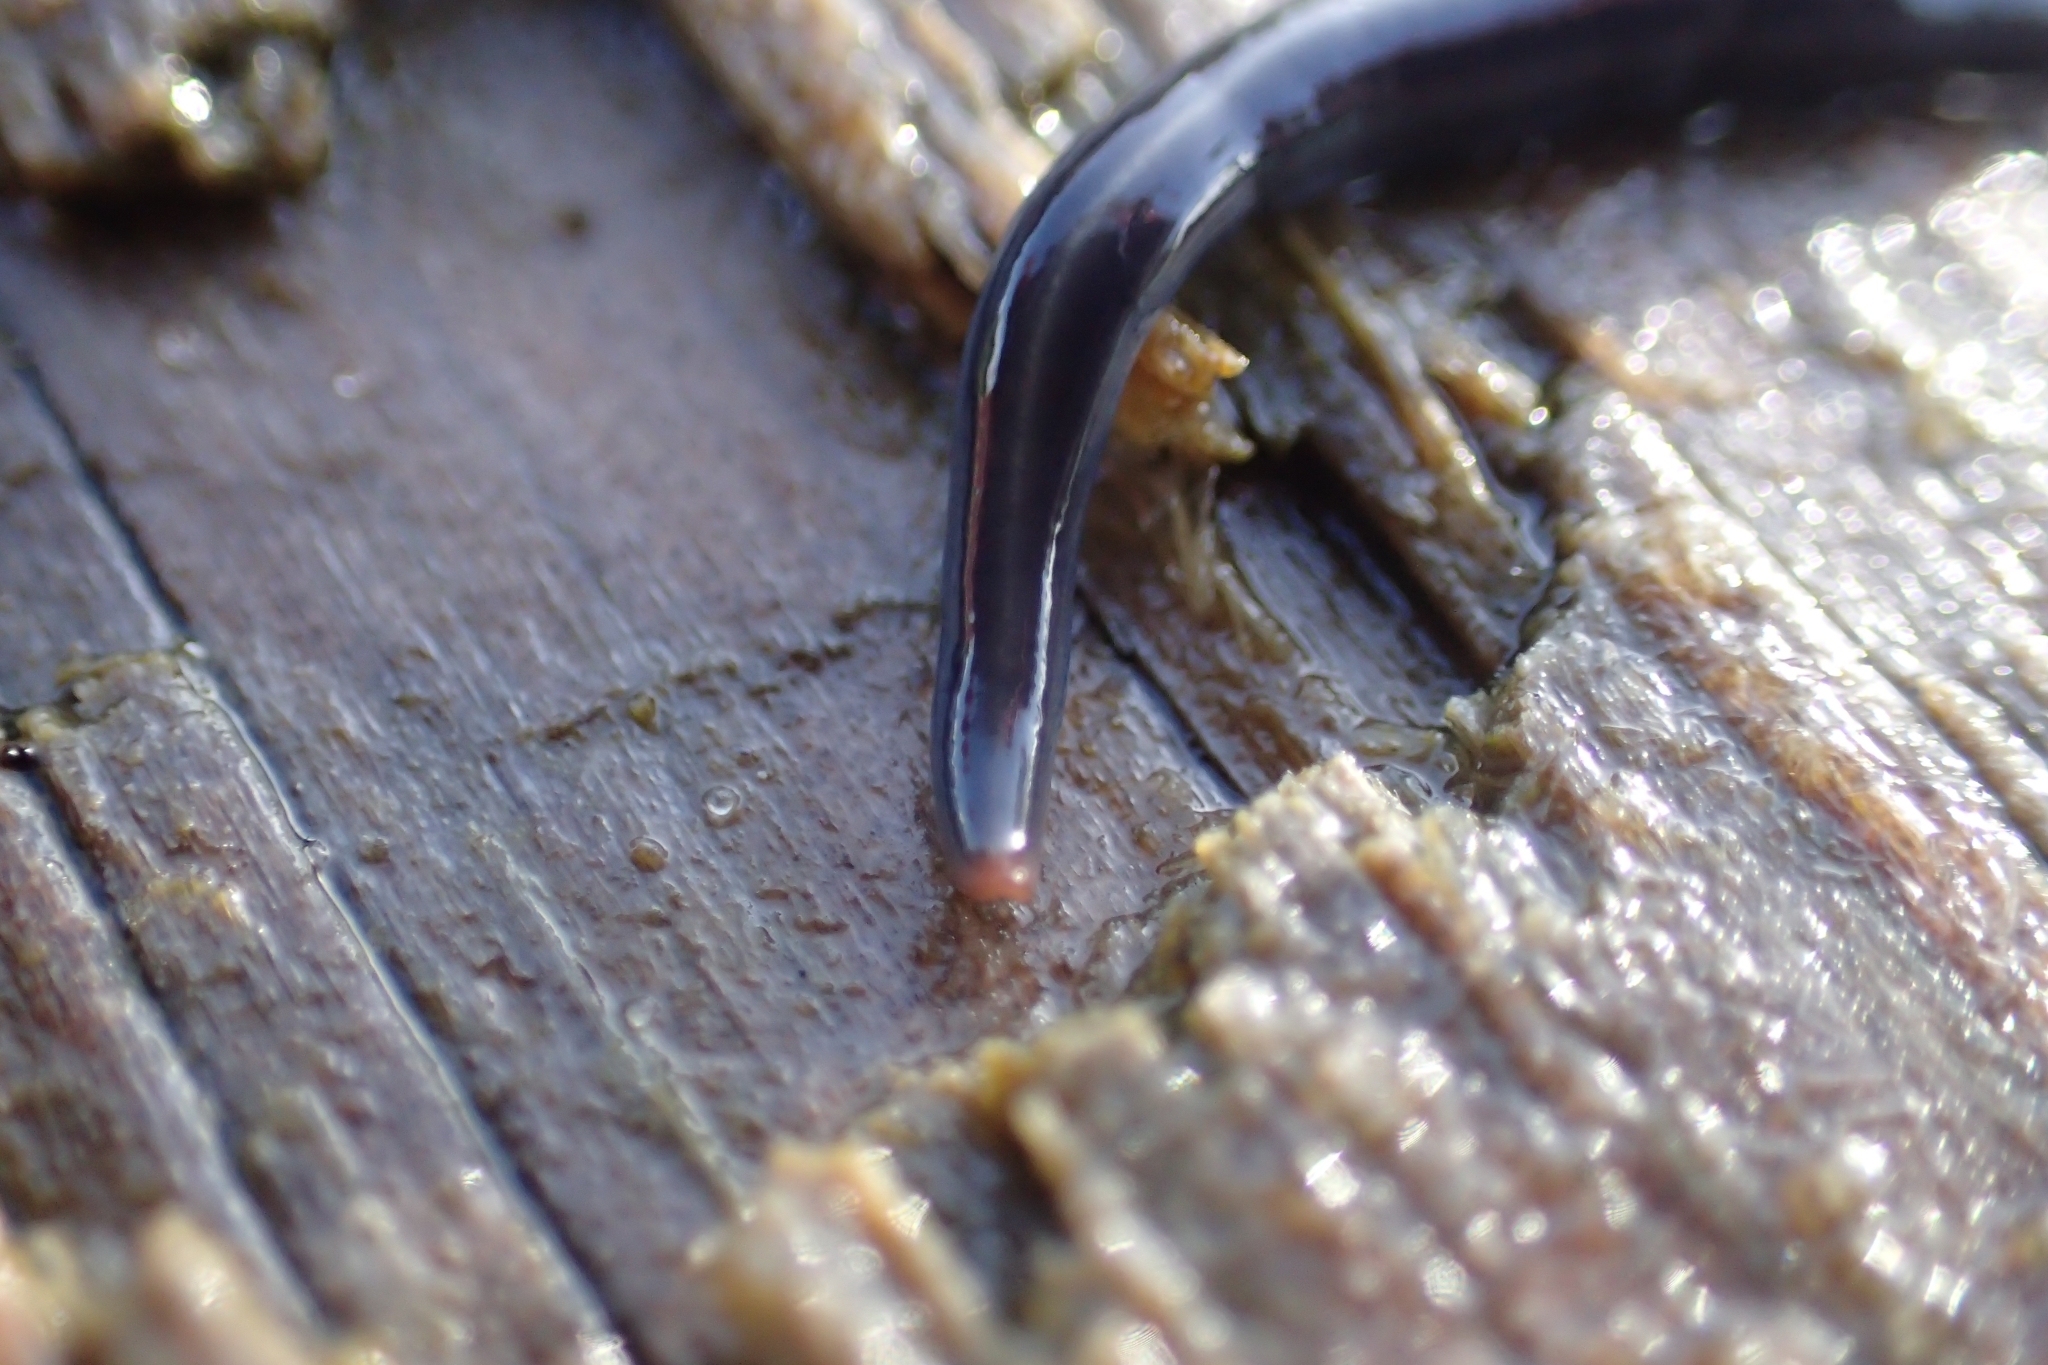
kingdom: Animalia
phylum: Platyhelminthes
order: Tricladida
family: Geoplanidae
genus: Caenoplana
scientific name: Caenoplana coerulea
